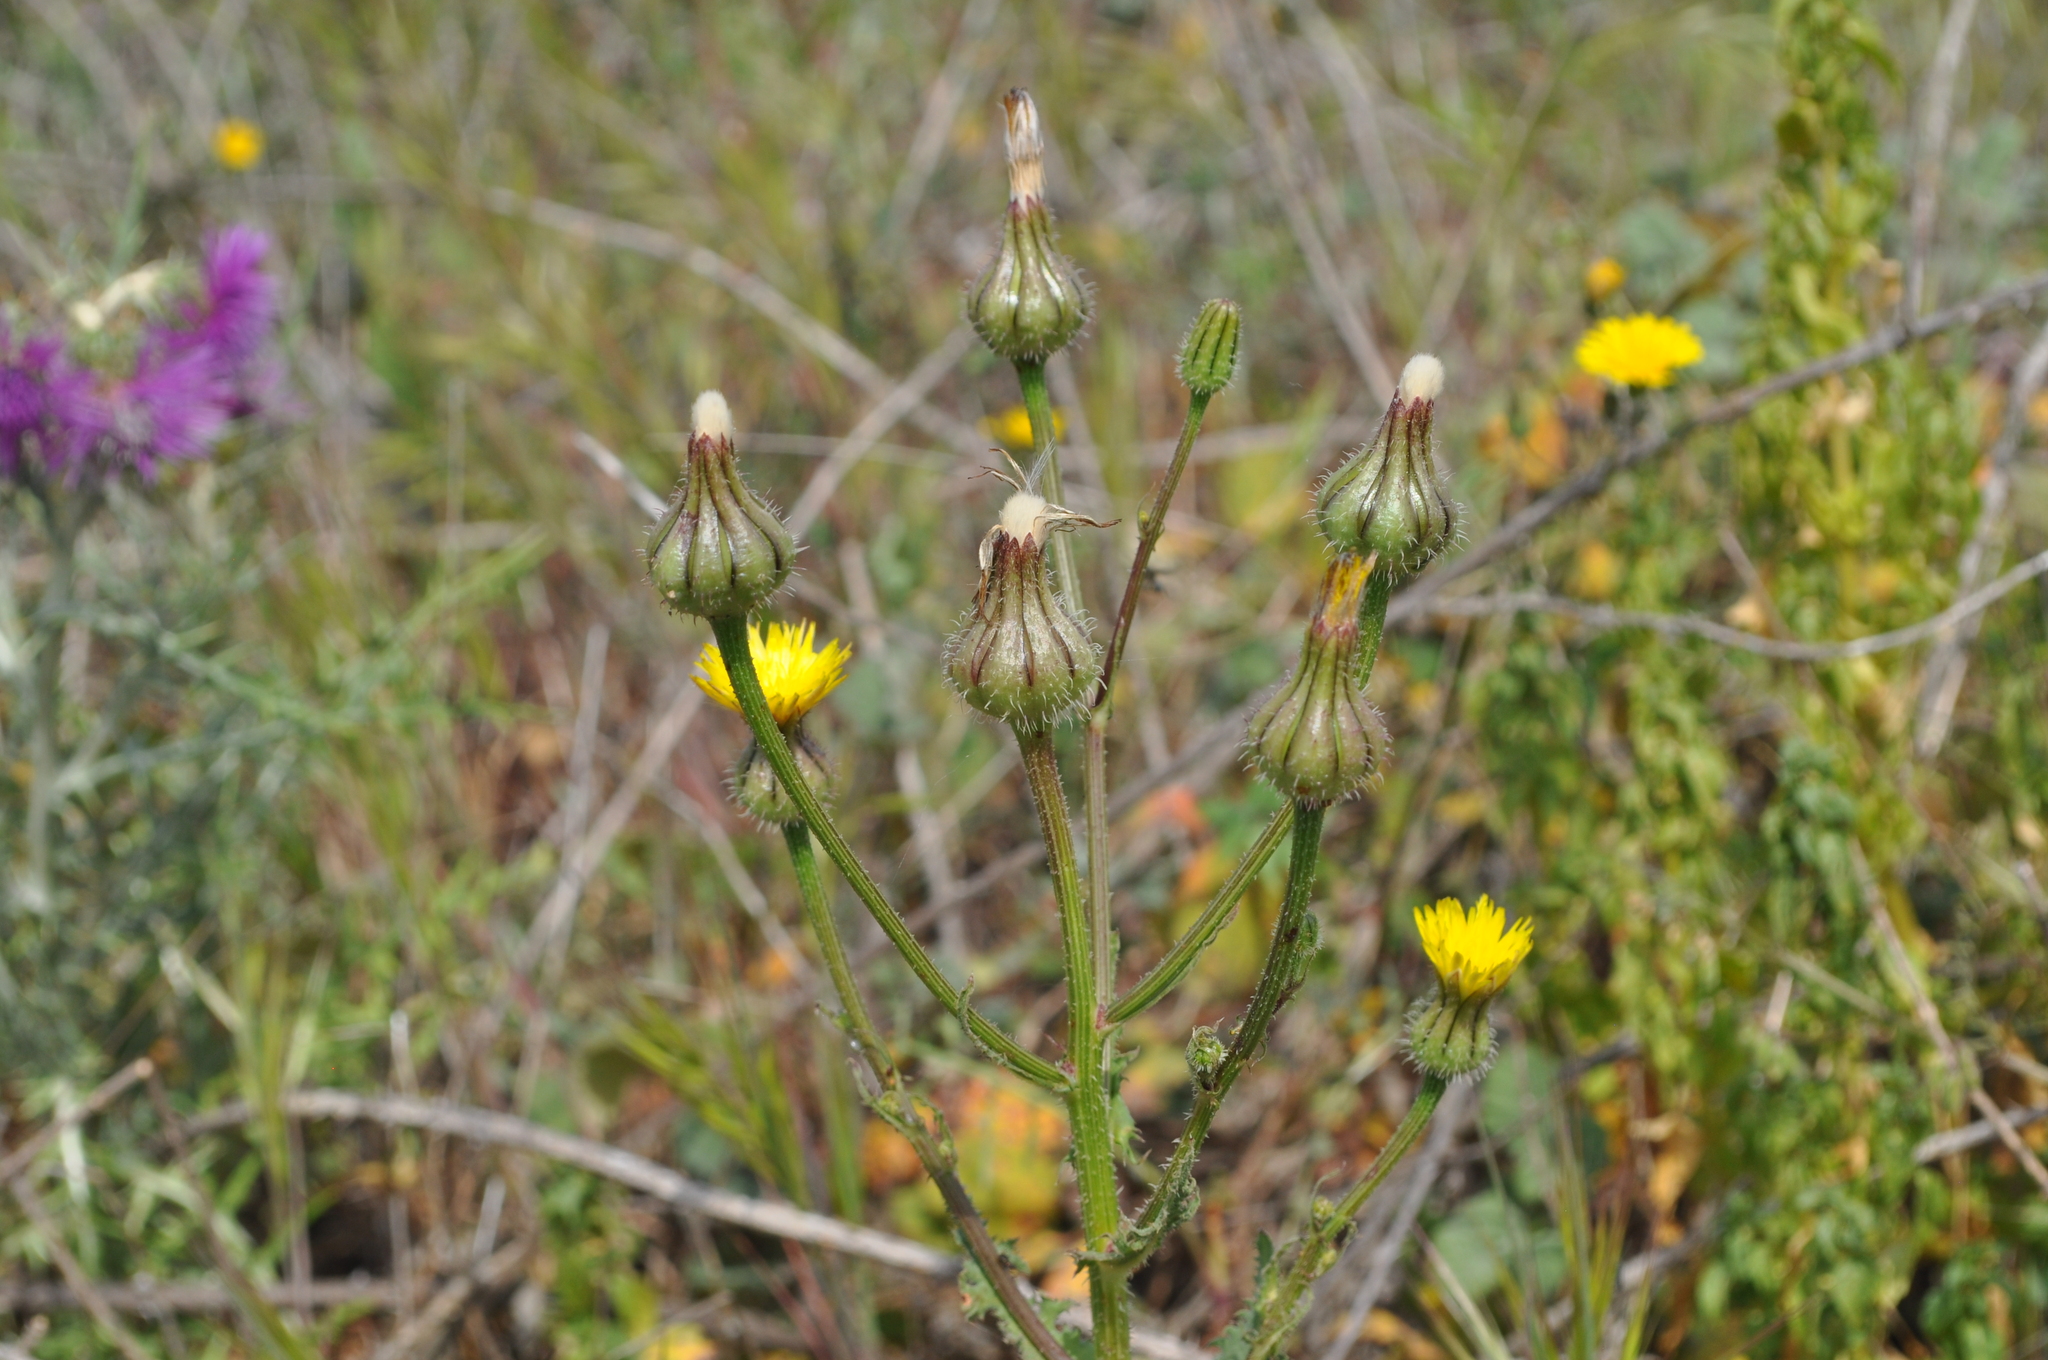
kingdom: Plantae
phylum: Tracheophyta
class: Magnoliopsida
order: Asterales
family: Asteraceae
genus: Urospermum
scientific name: Urospermum picroides
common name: False hawkbit
